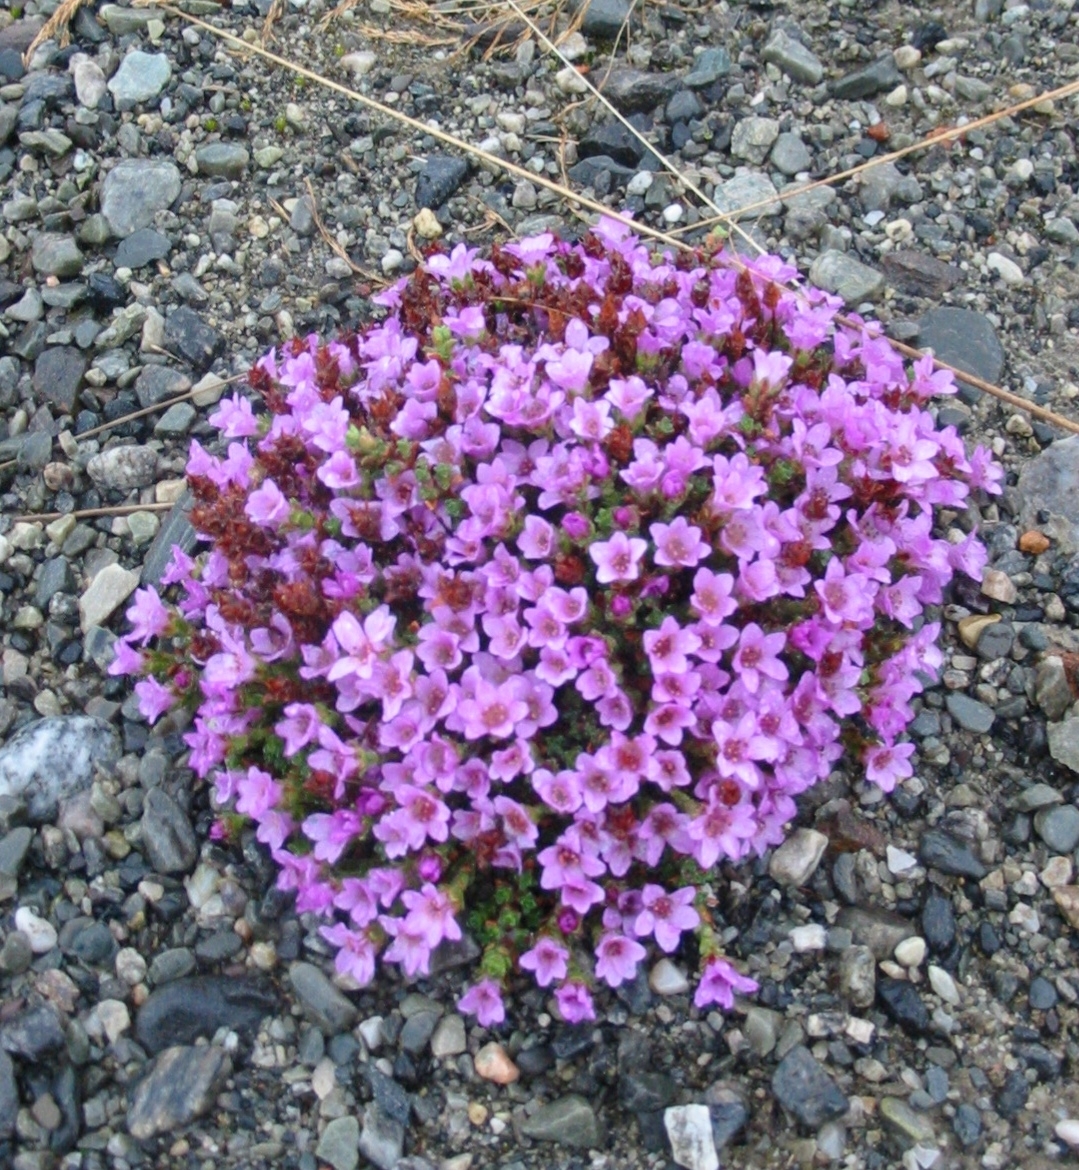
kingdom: Plantae
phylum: Tracheophyta
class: Magnoliopsida
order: Saxifragales
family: Saxifragaceae
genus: Saxifraga
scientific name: Saxifraga oppositifolia
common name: Purple saxifrage
